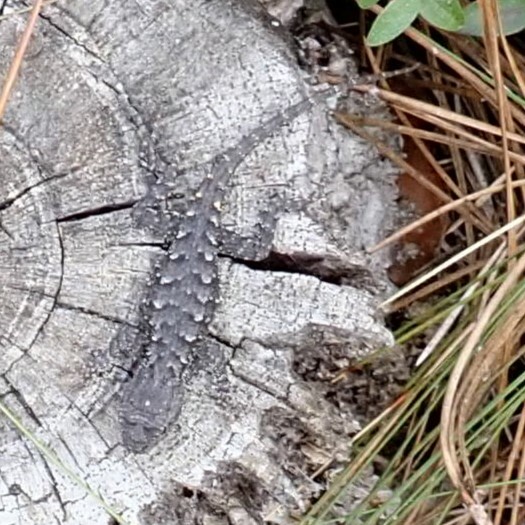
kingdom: Animalia
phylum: Chordata
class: Squamata
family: Phrynosomatidae
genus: Sceloporus
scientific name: Sceloporus undulatus
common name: Eastern fence lizard
